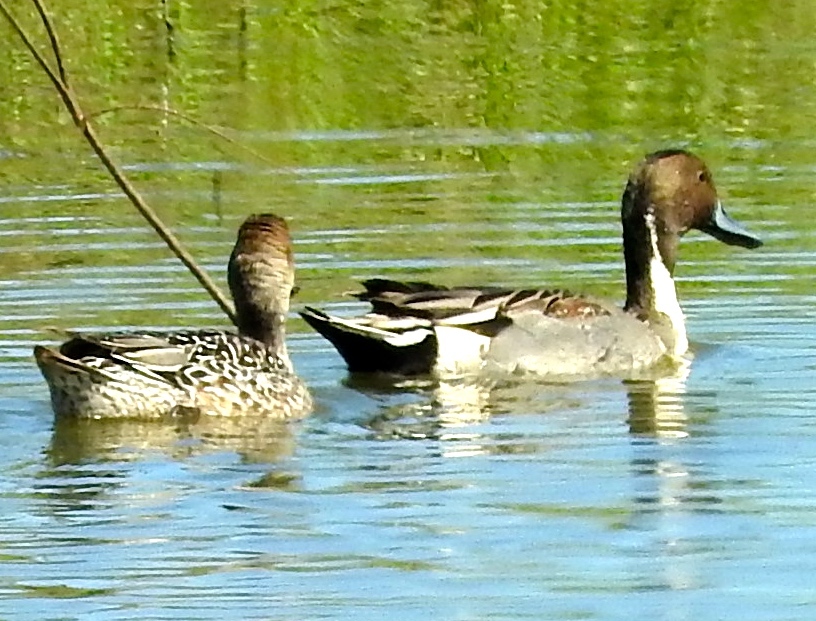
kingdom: Animalia
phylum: Chordata
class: Aves
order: Anseriformes
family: Anatidae
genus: Anas
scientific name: Anas acuta
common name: Northern pintail
